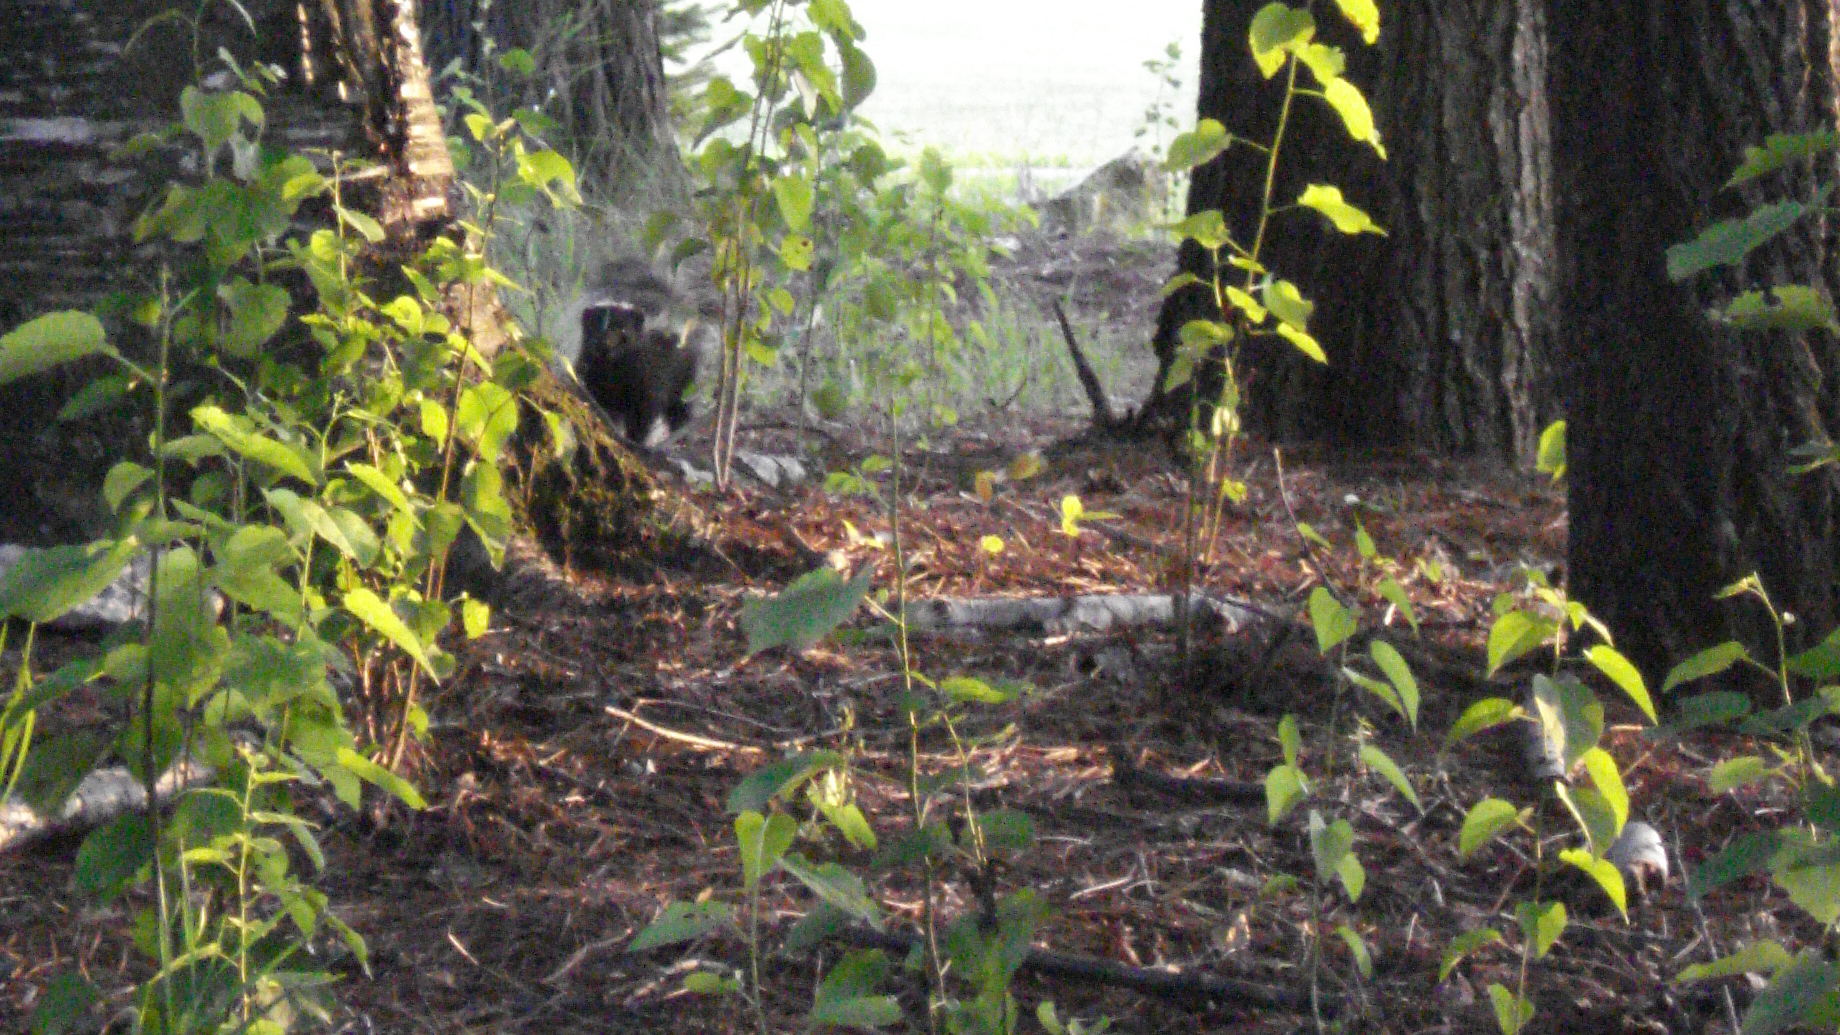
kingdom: Animalia
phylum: Chordata
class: Mammalia
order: Carnivora
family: Mephitidae
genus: Mephitis
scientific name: Mephitis mephitis
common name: Striped skunk
